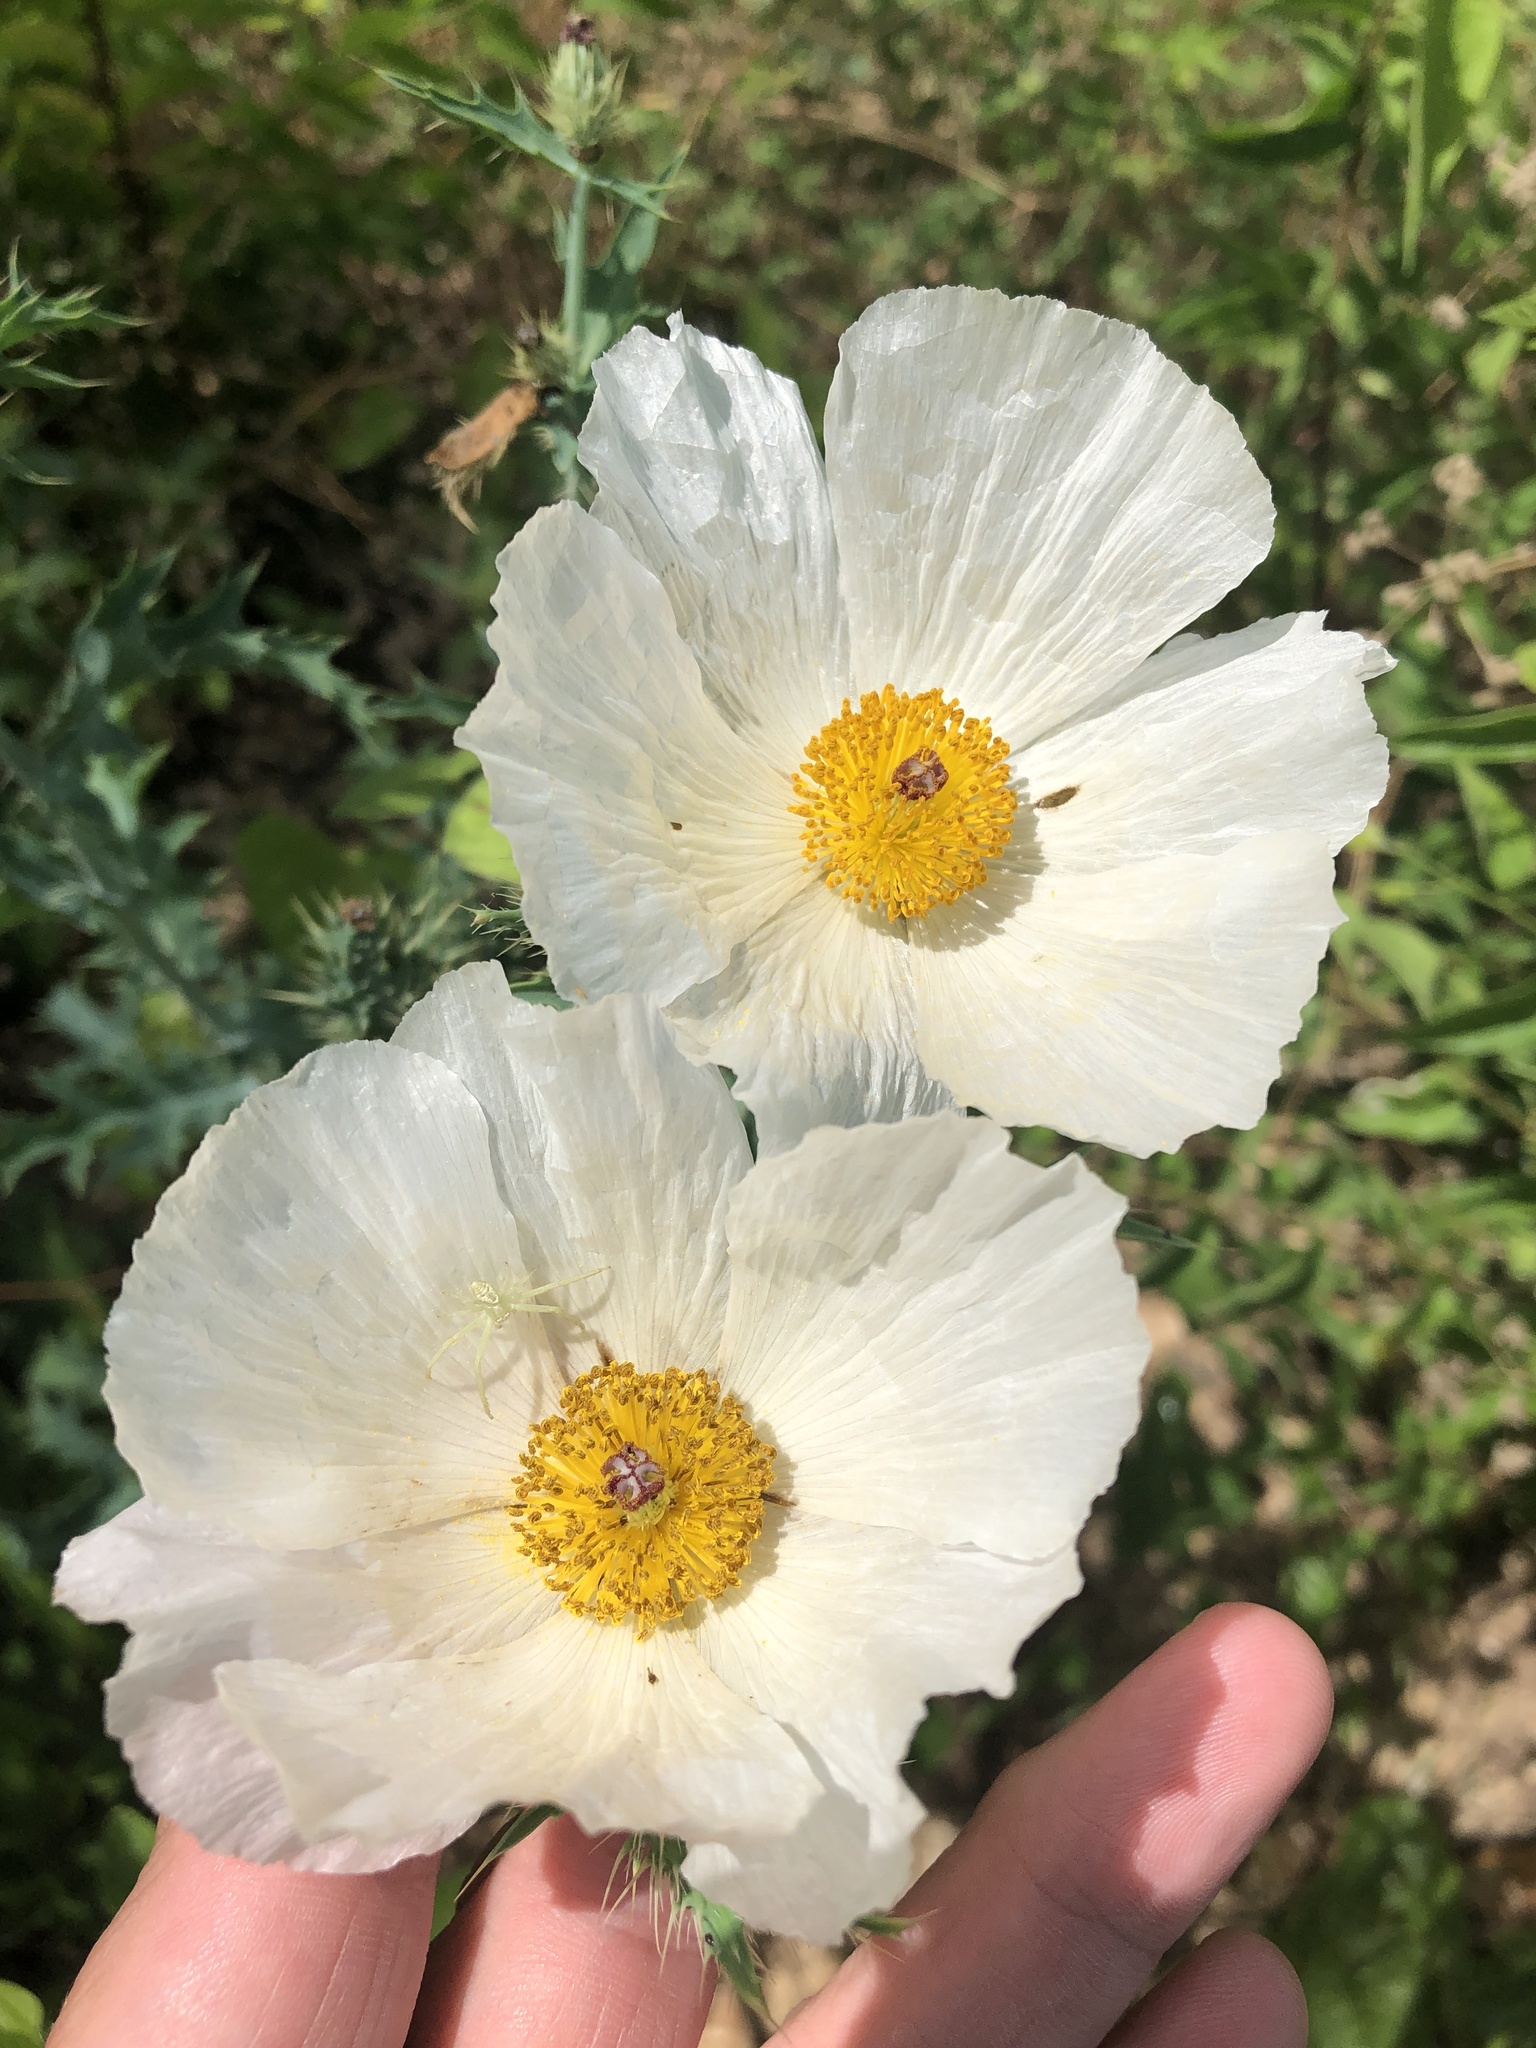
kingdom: Plantae
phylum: Tracheophyta
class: Magnoliopsida
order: Ranunculales
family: Papaveraceae
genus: Argemone
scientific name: Argemone albiflora
